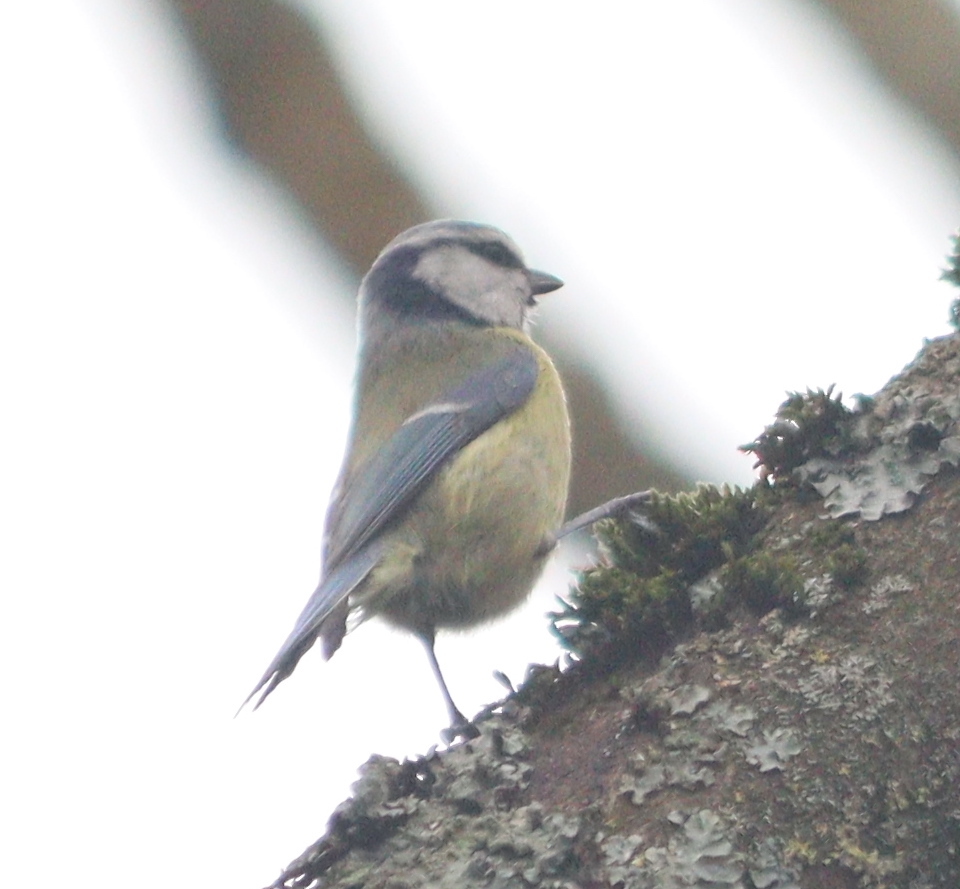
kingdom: Animalia
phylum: Chordata
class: Aves
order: Passeriformes
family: Paridae
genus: Cyanistes
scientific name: Cyanistes caeruleus
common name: Eurasian blue tit
